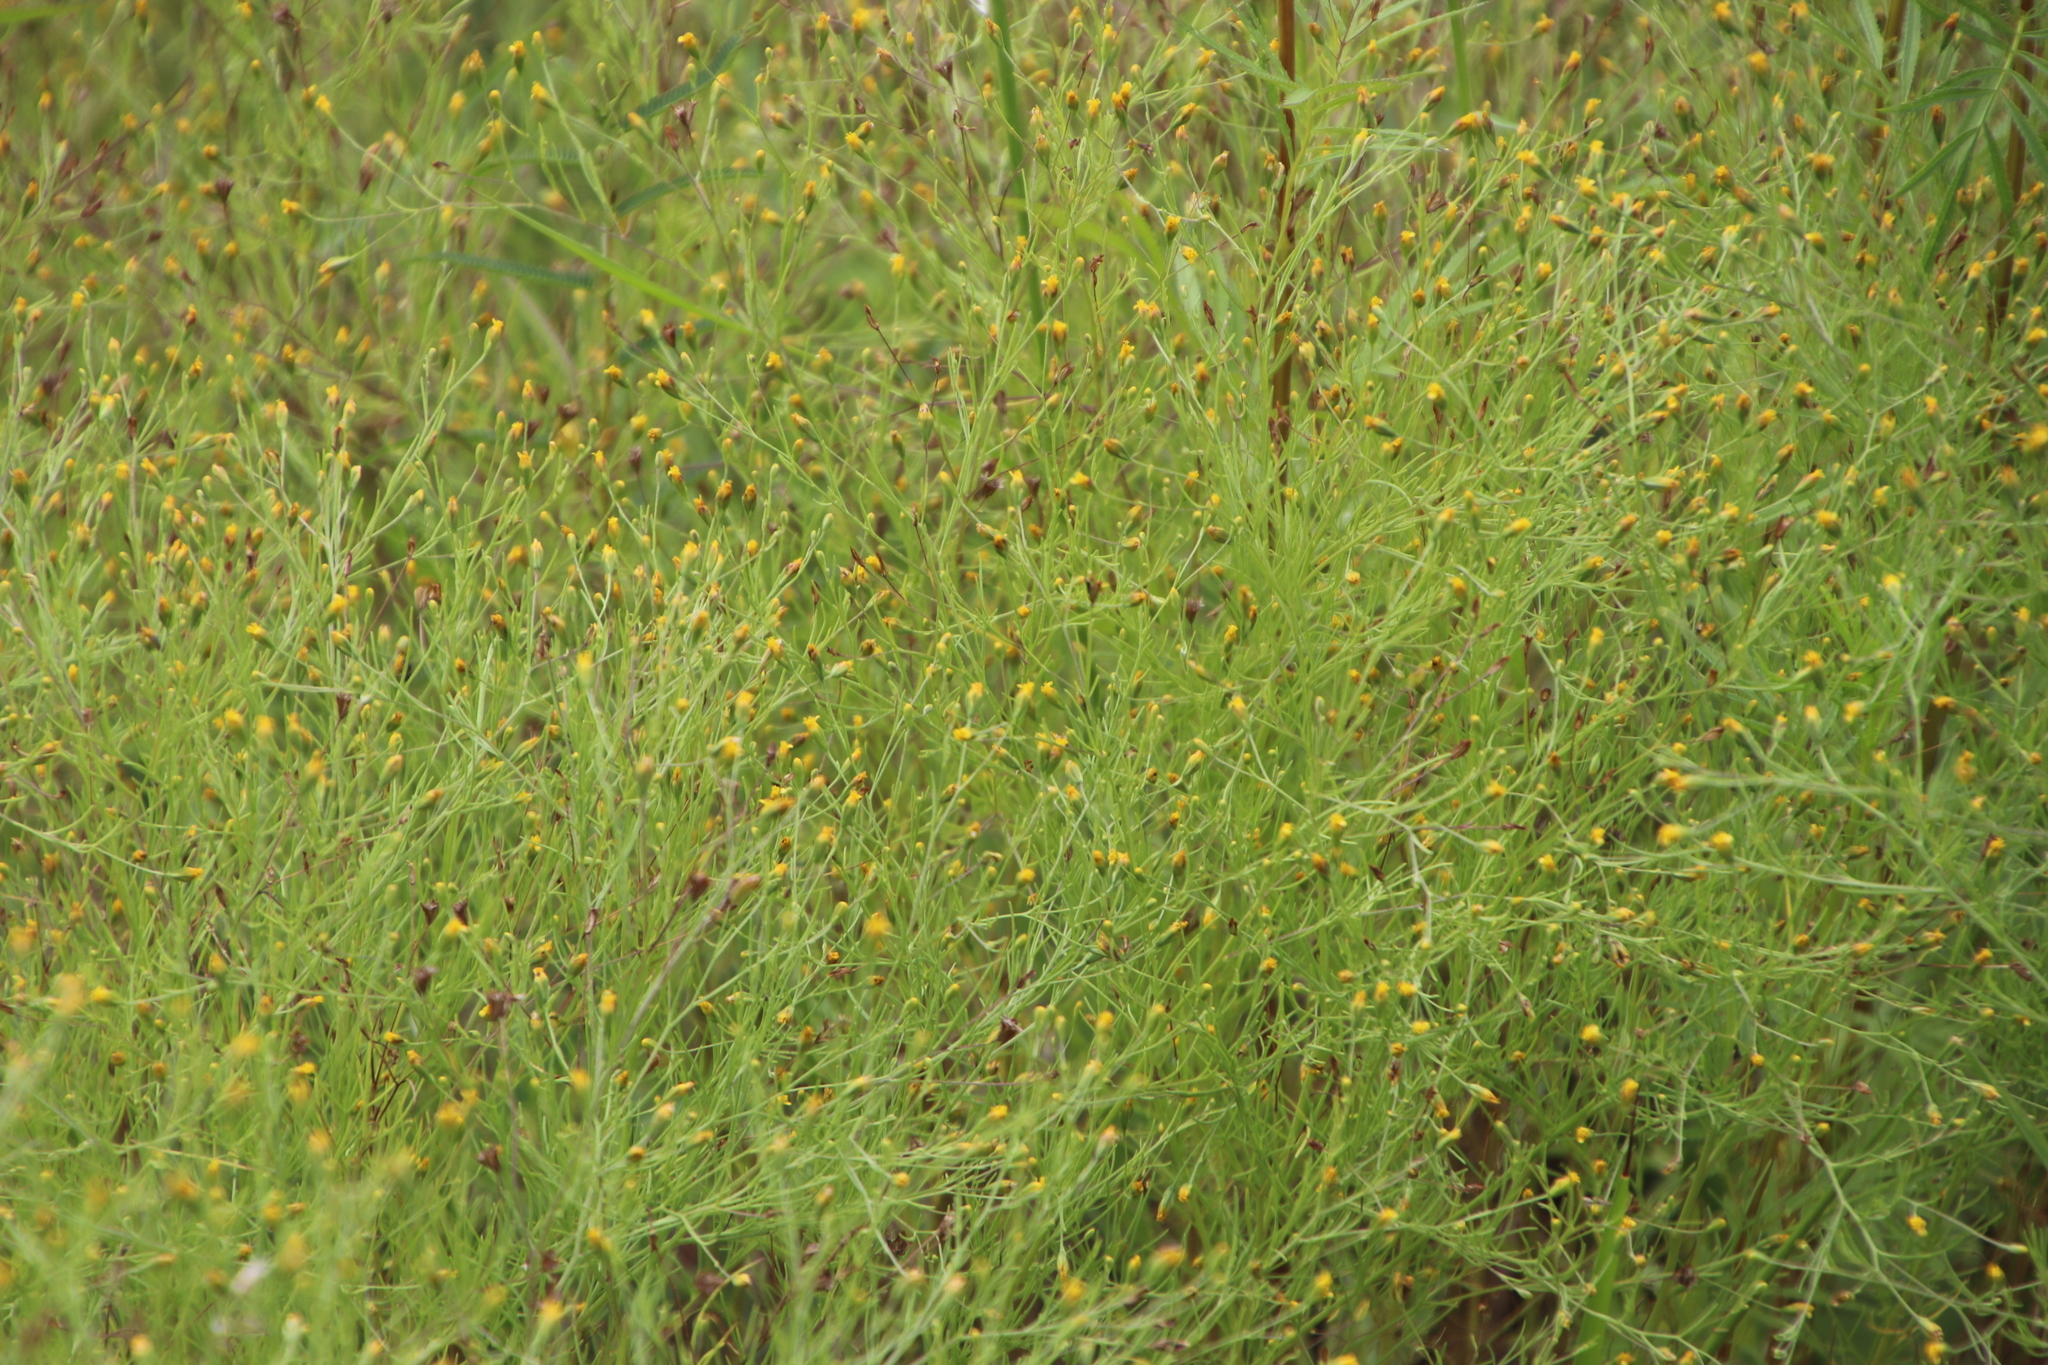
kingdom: Plantae
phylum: Tracheophyta
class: Magnoliopsida
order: Asterales
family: Asteraceae
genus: Schkuhria
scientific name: Schkuhria pinnata
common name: Dwarf marigold
